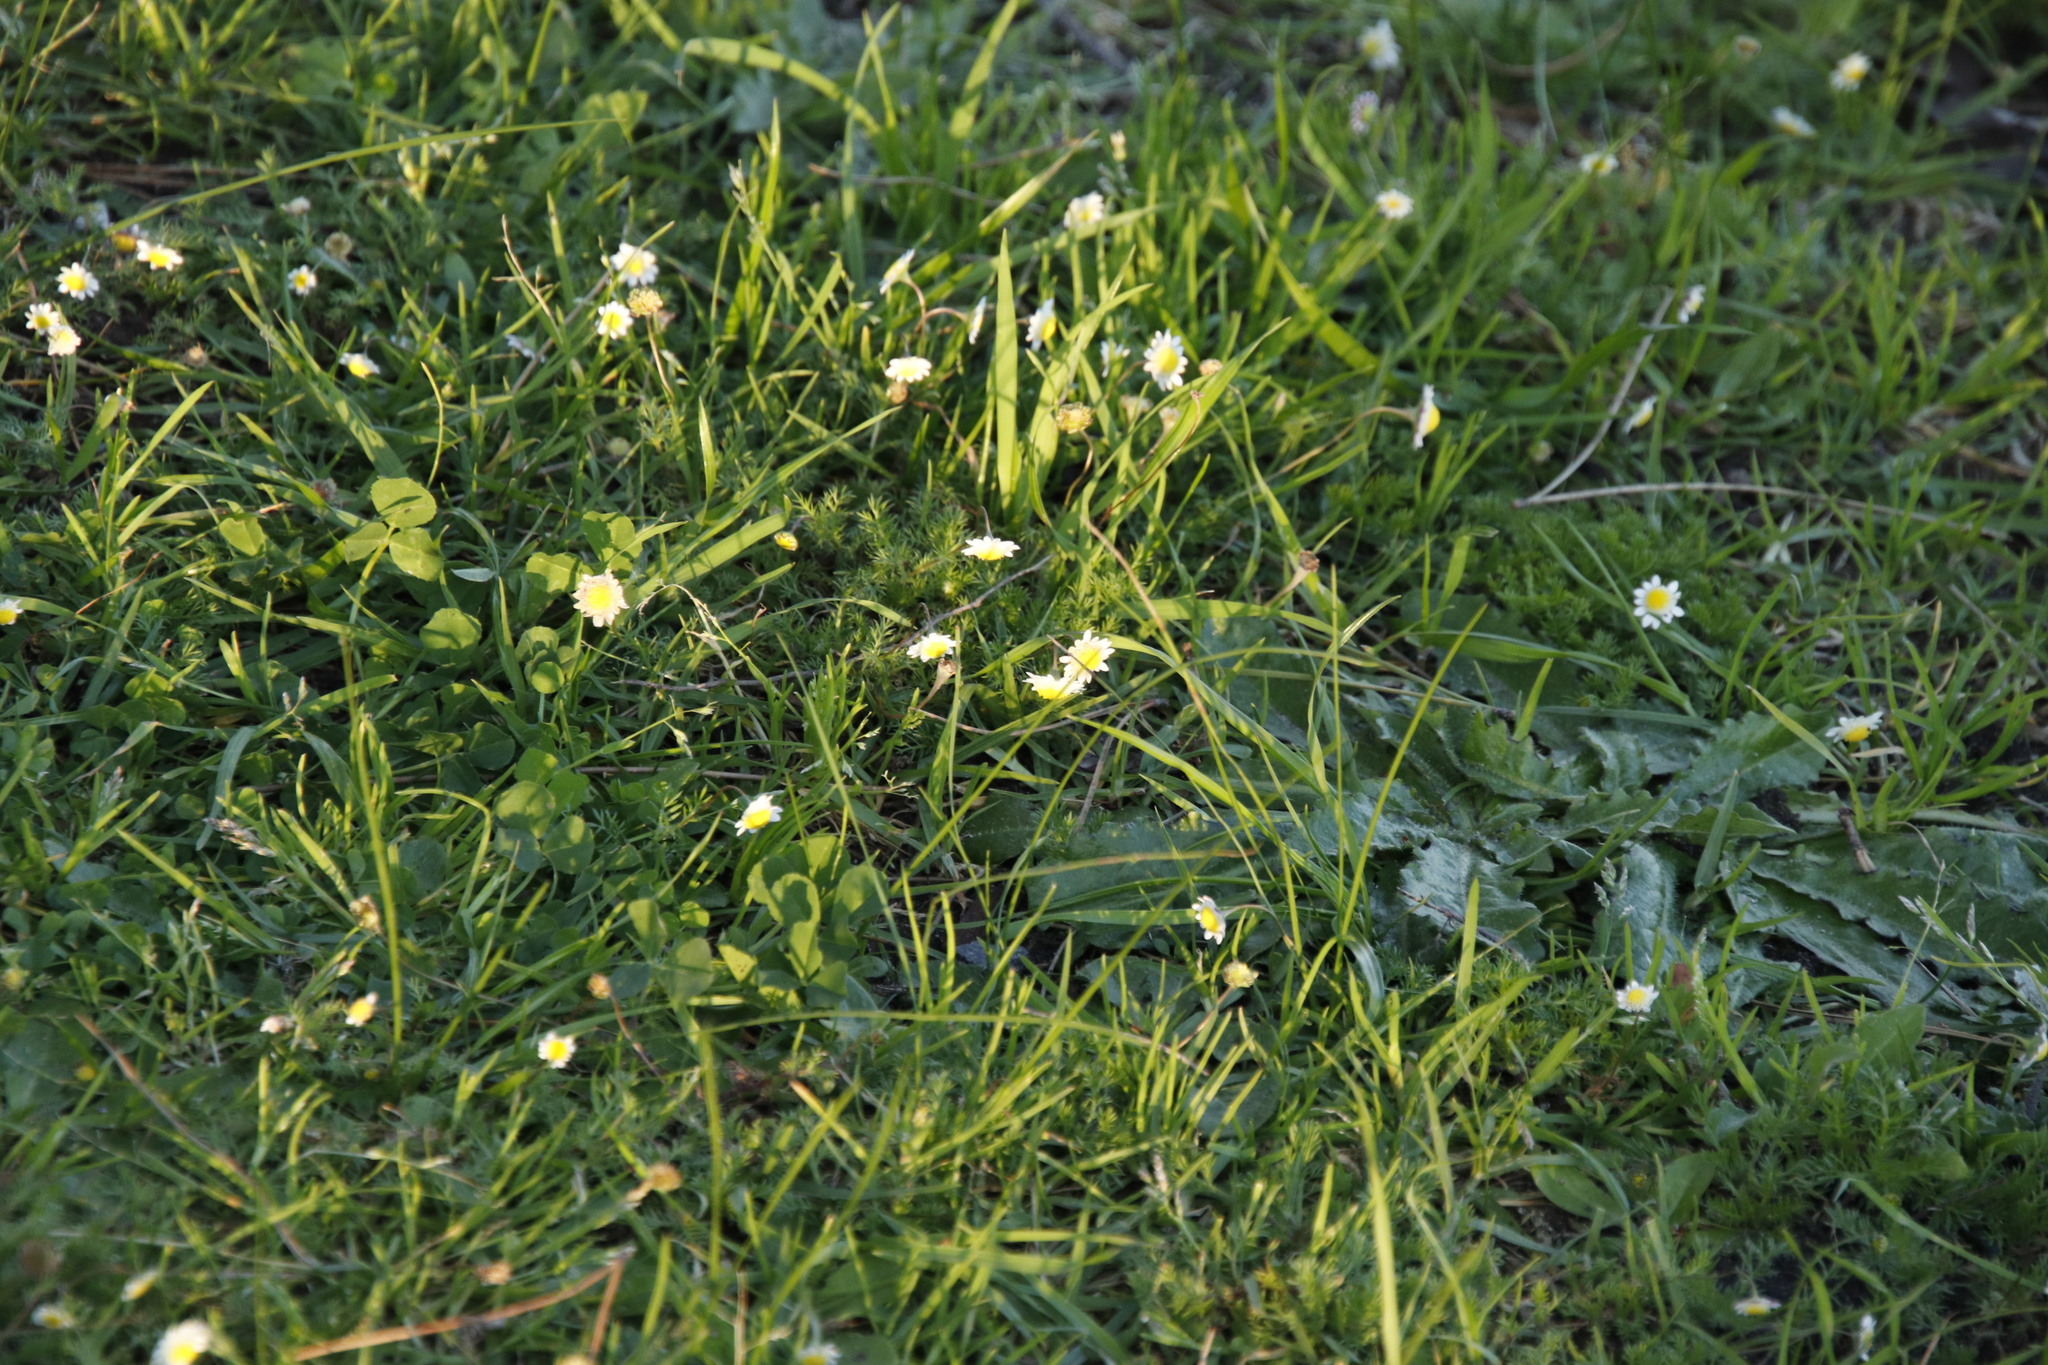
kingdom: Plantae
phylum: Tracheophyta
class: Magnoliopsida
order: Asterales
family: Asteraceae
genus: Cotula
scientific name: Cotula turbinata
